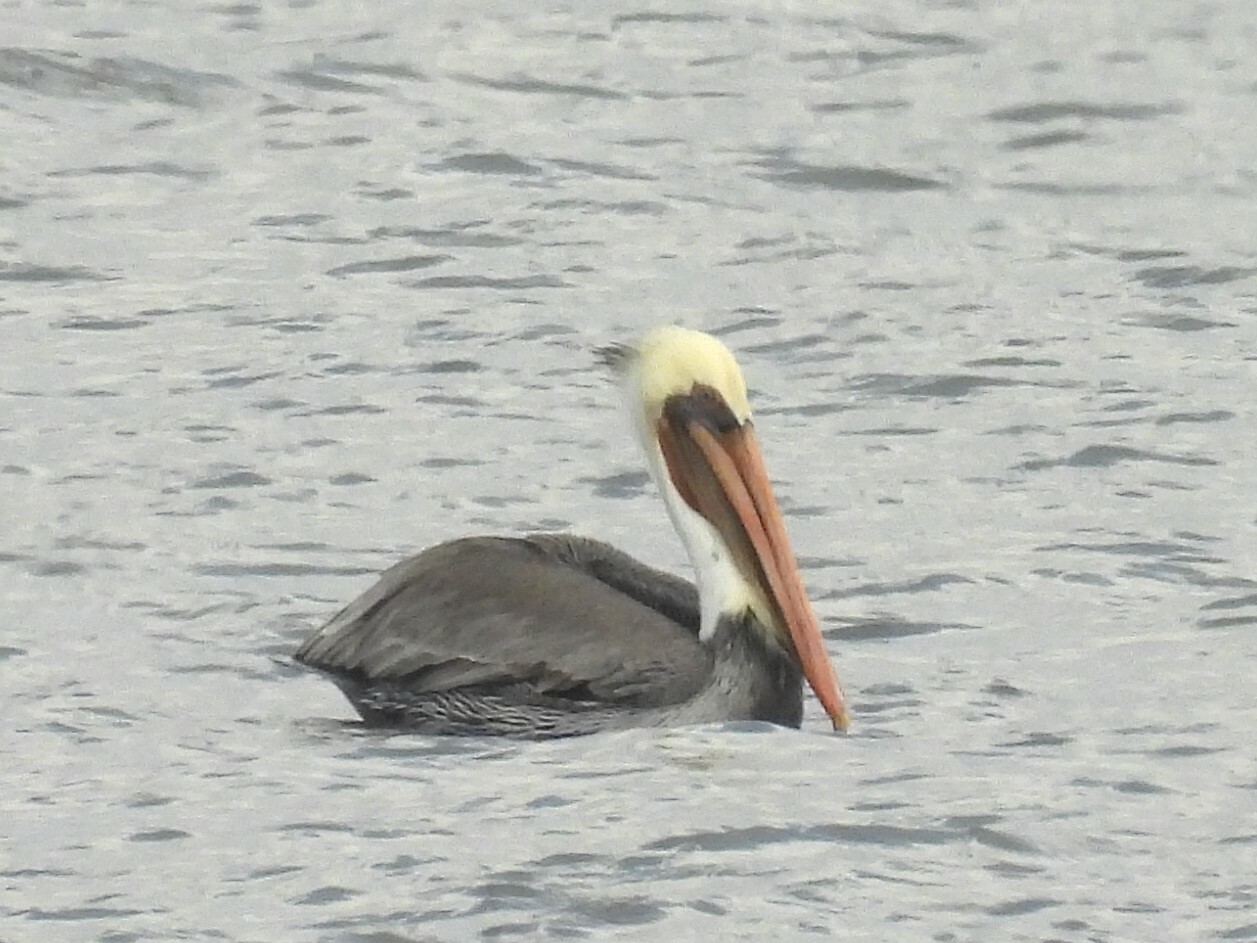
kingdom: Animalia
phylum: Chordata
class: Aves
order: Pelecaniformes
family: Pelecanidae
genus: Pelecanus
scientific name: Pelecanus occidentalis
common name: Brown pelican
